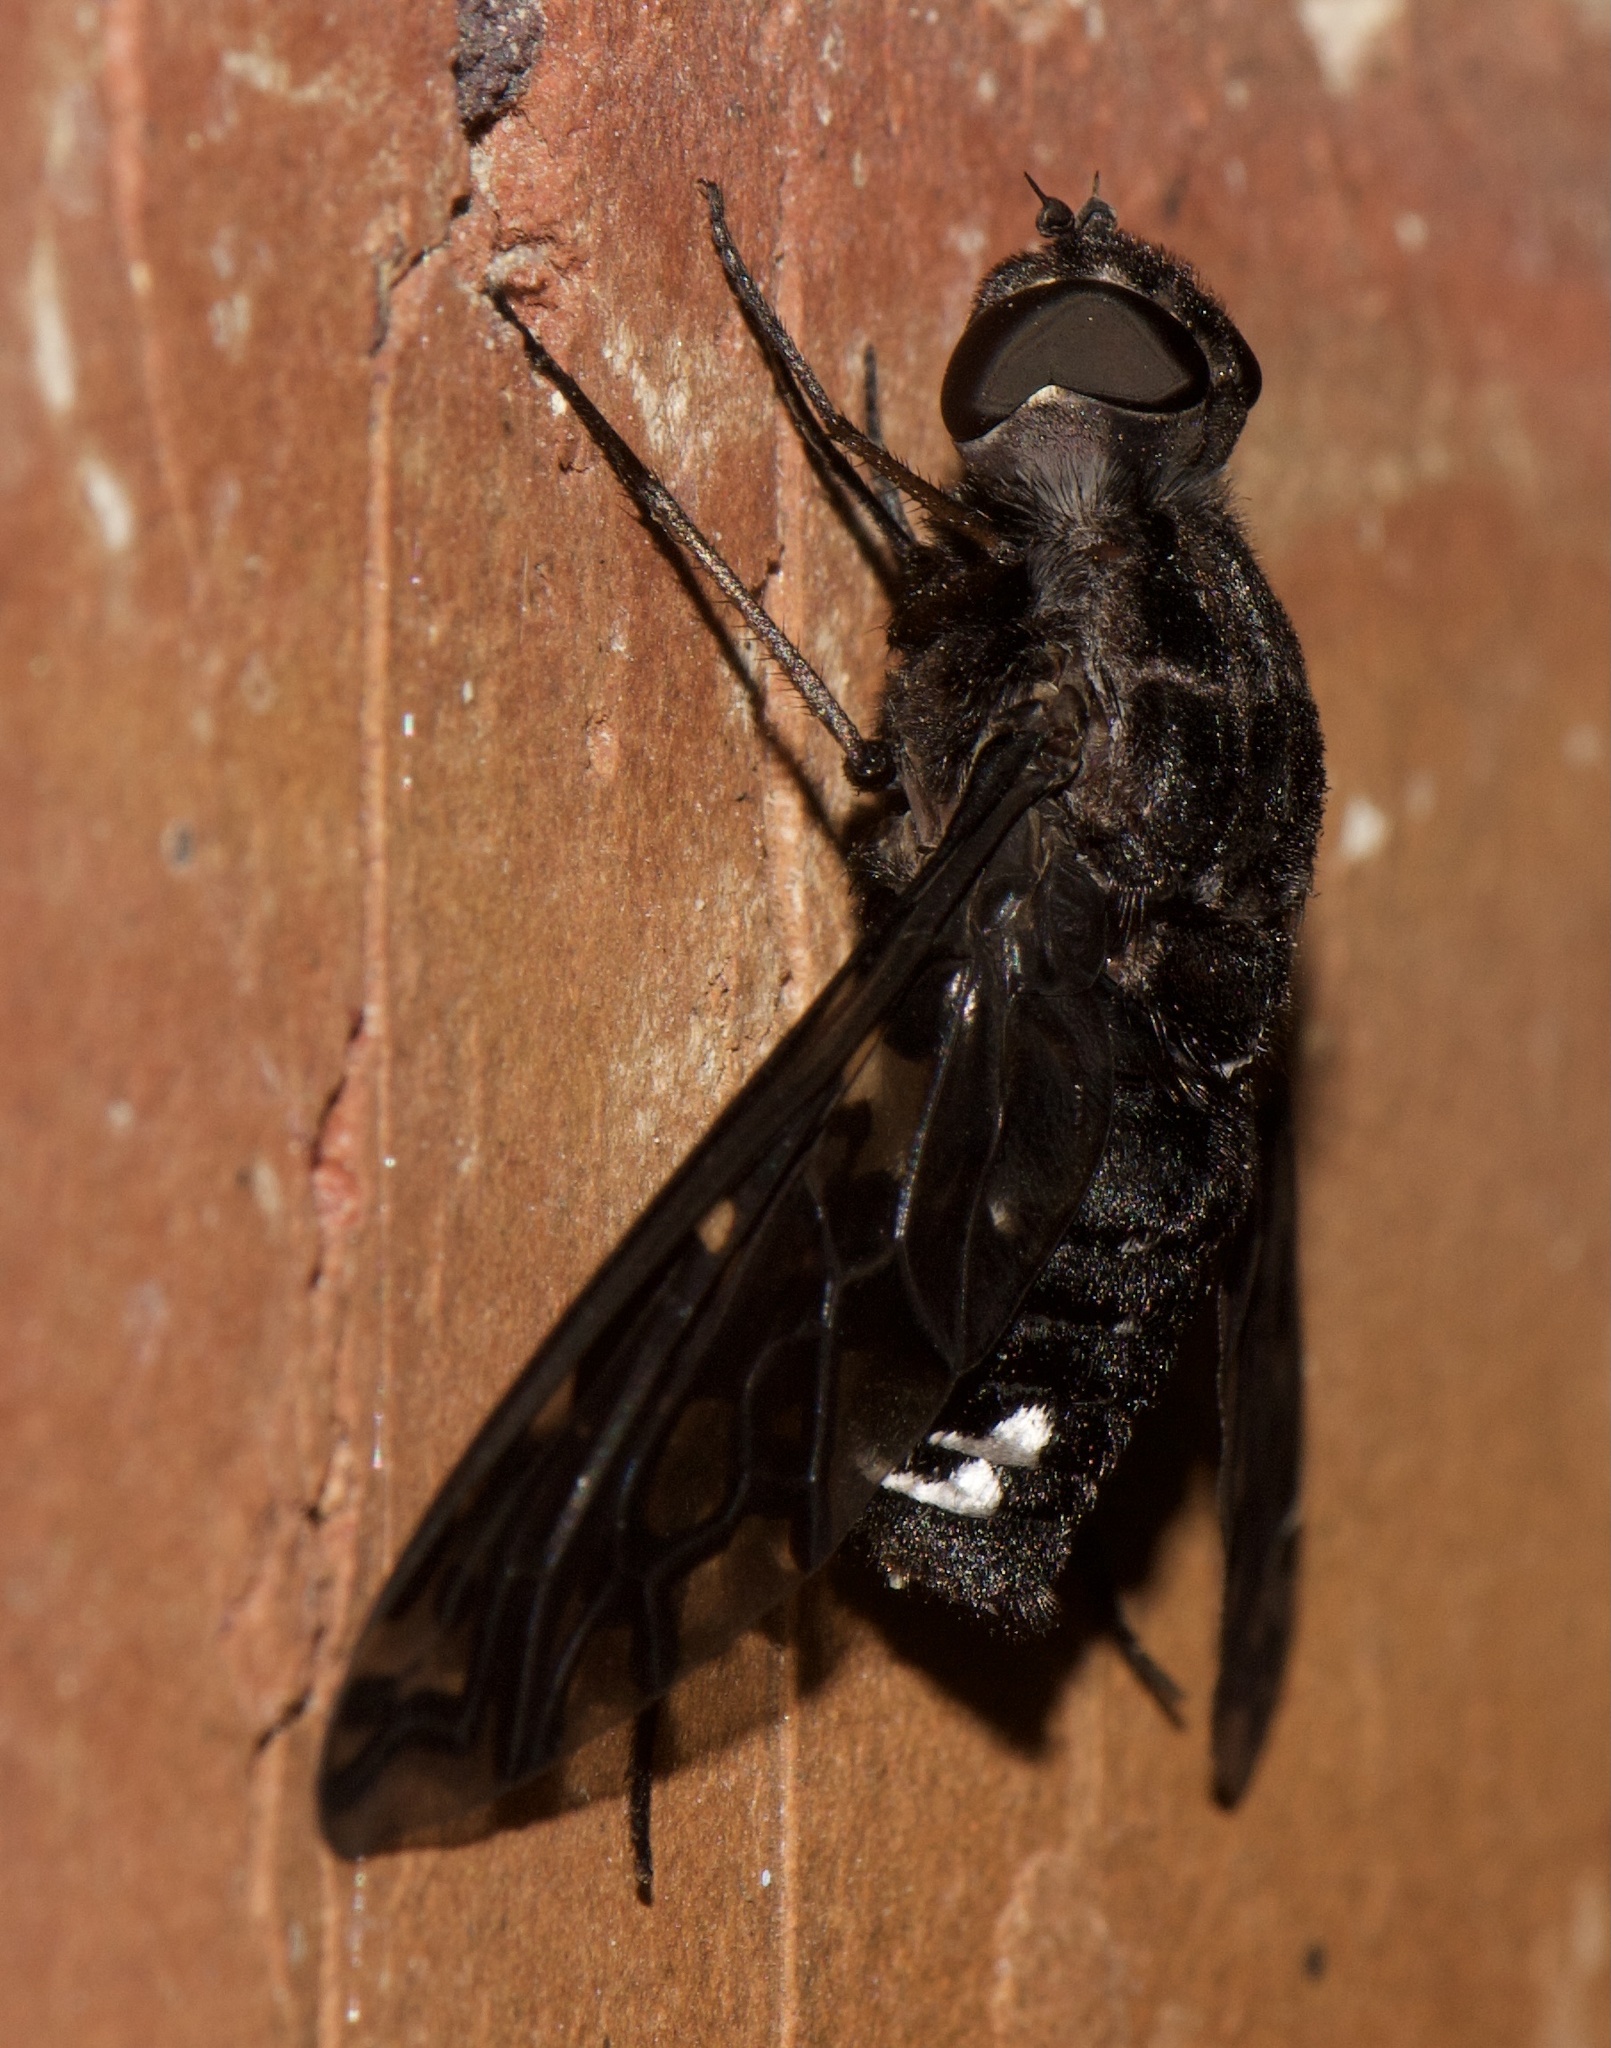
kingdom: Animalia
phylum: Arthropoda
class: Insecta
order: Diptera
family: Bombyliidae
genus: Xenox
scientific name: Xenox tigrinus
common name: Tiger bee fly
